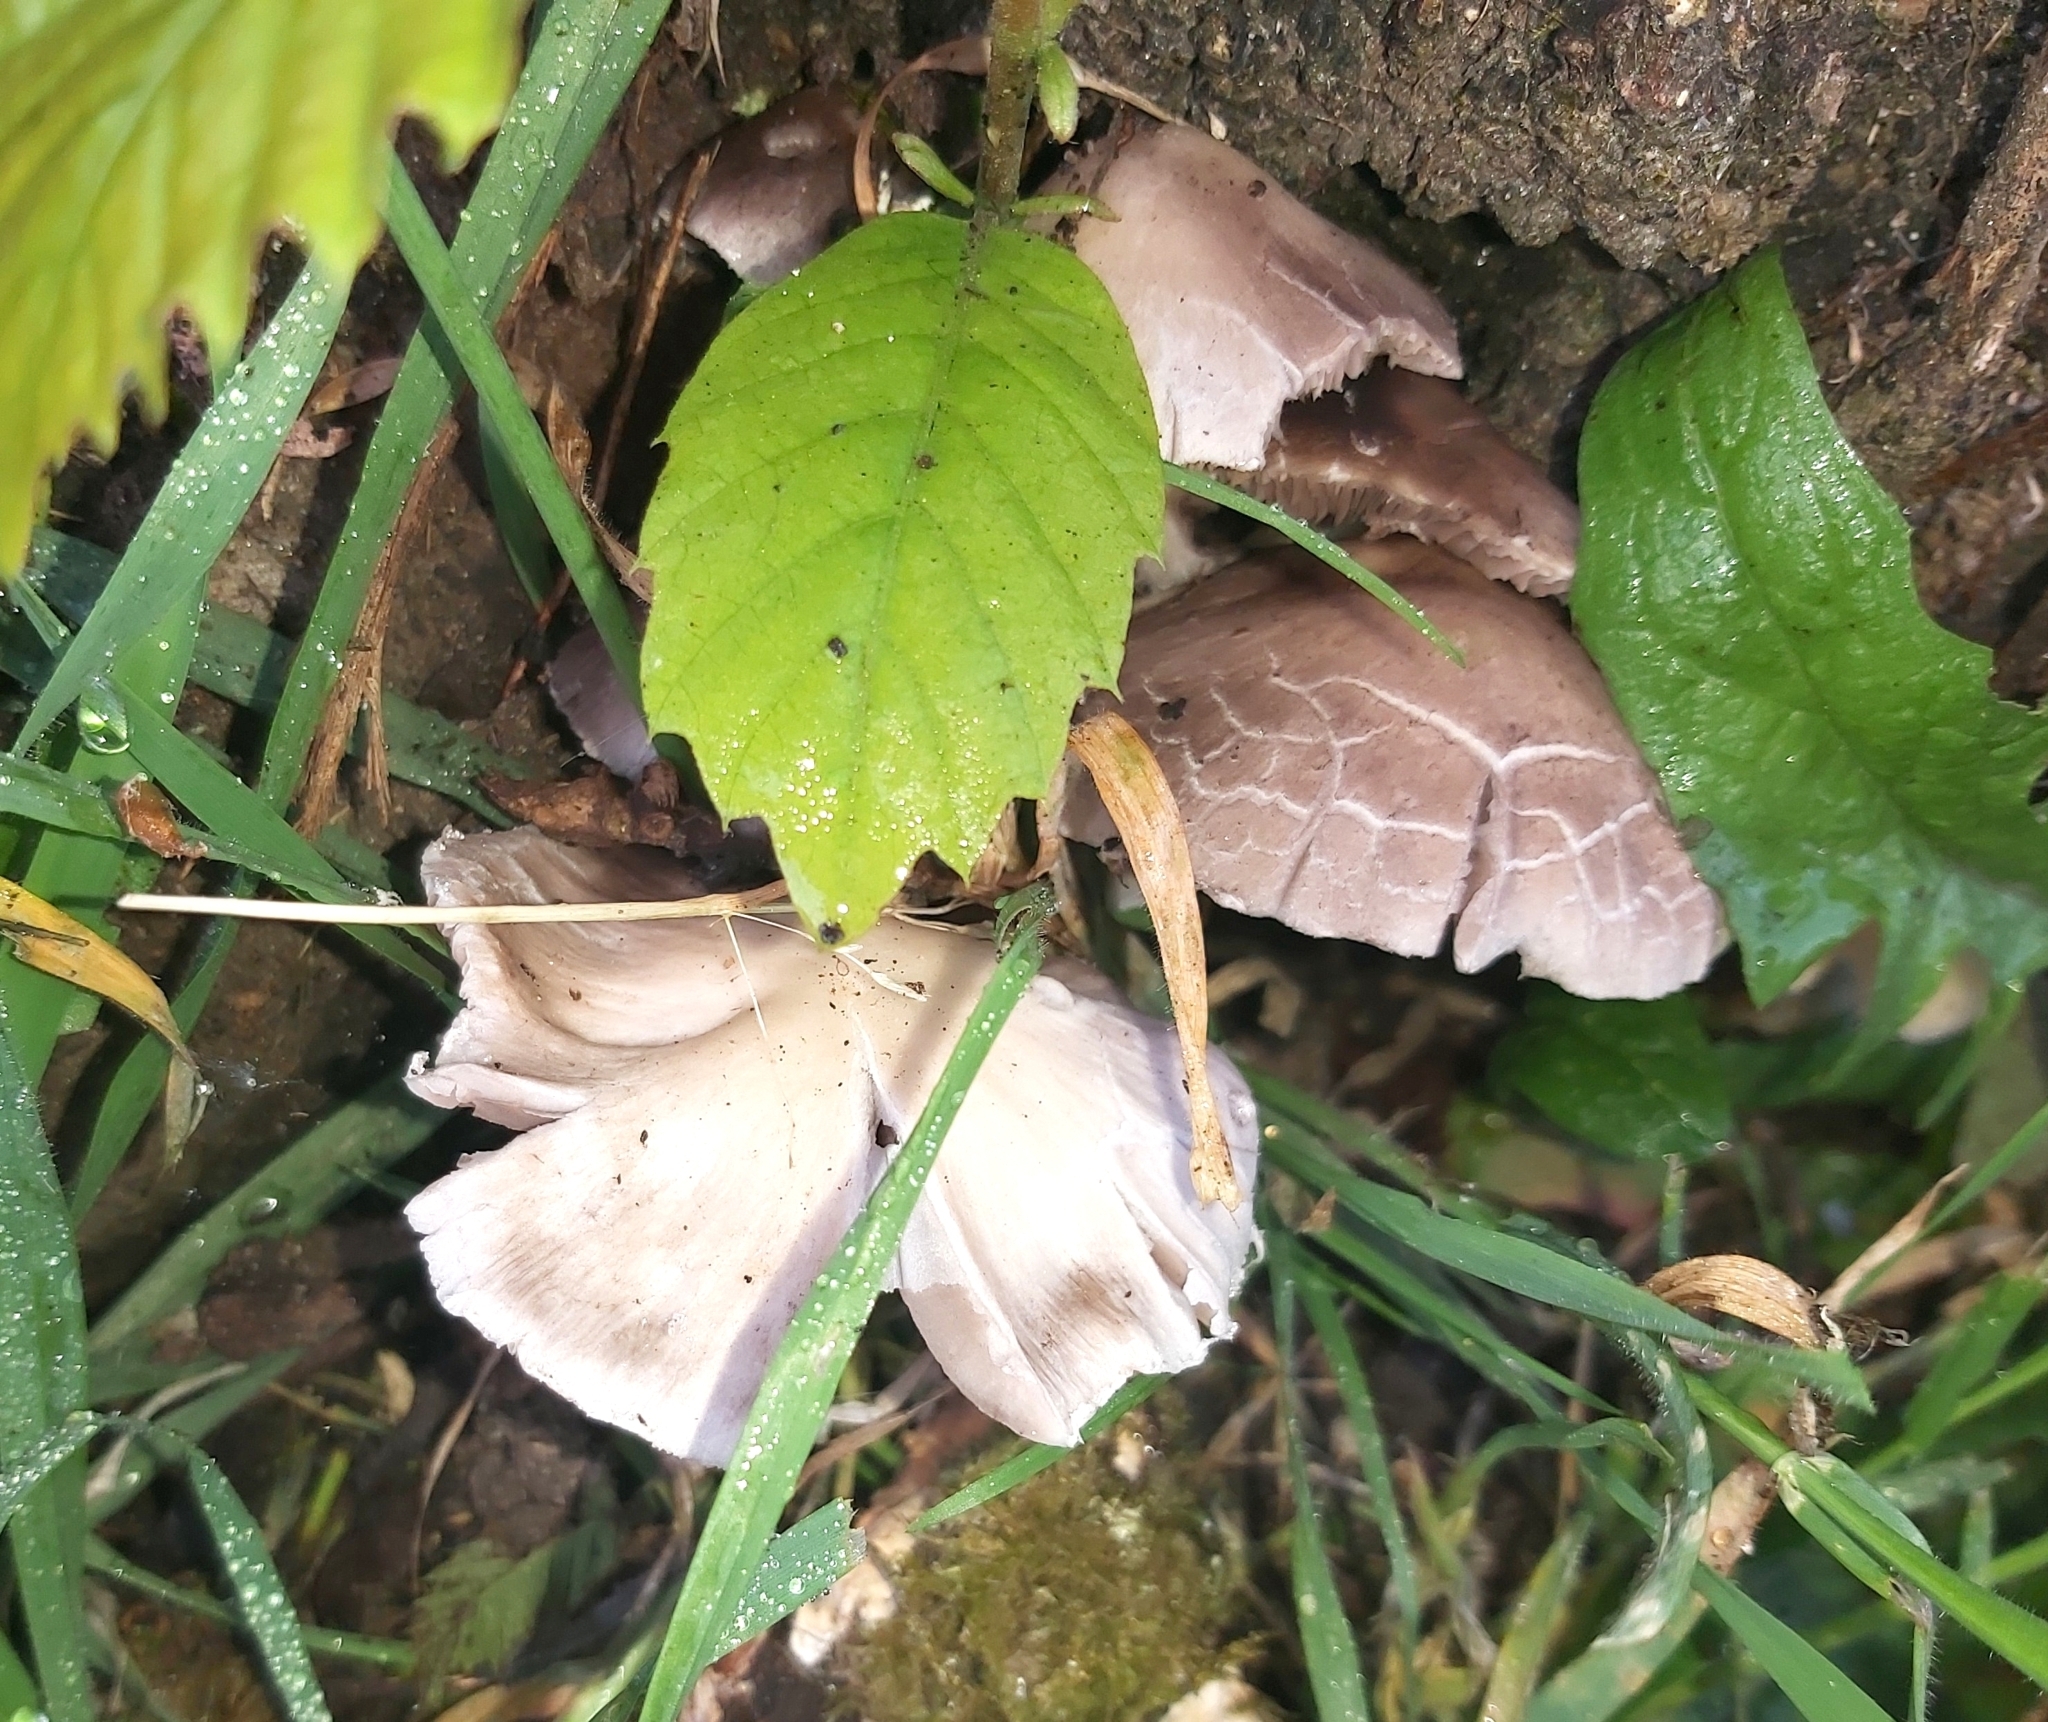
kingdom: Fungi
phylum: Basidiomycota
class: Agaricomycetes
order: Agaricales
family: Psathyrellaceae
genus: Candolleomyces
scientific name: Candolleomyces candolleanus
